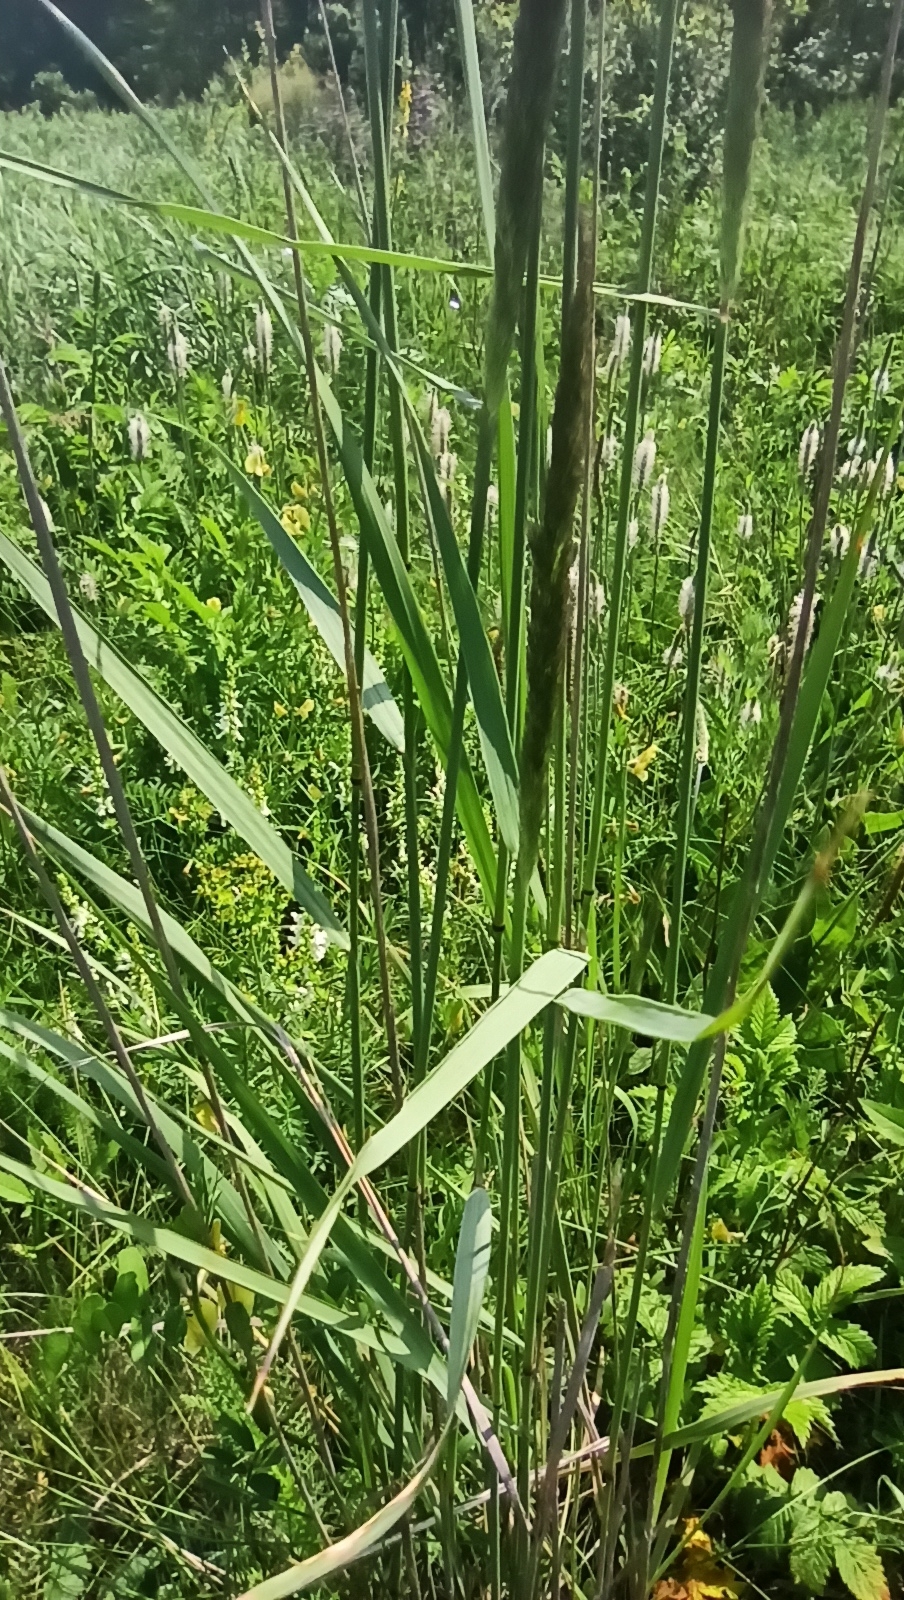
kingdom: Plantae
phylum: Tracheophyta
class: Liliopsida
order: Poales
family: Poaceae
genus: Calamagrostis
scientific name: Calamagrostis epigejos
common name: Wood small-reed
